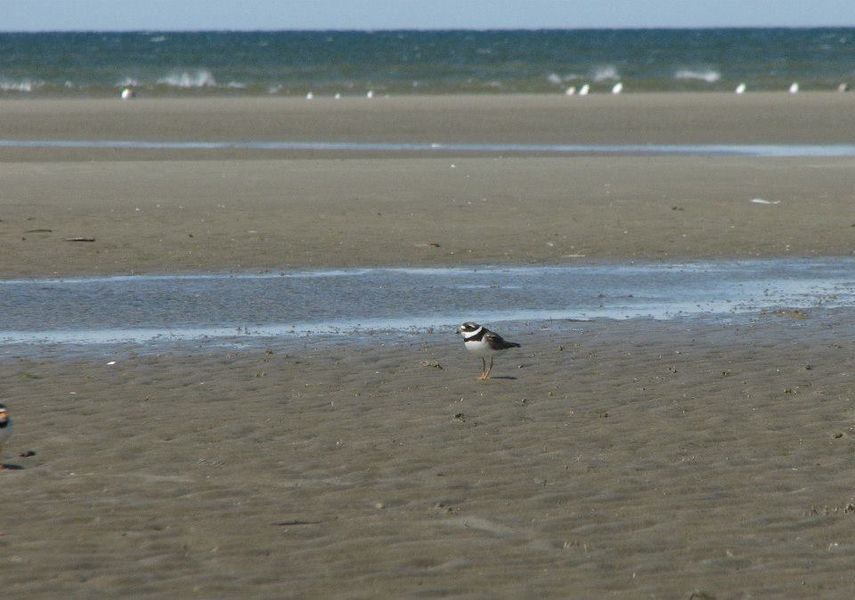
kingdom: Animalia
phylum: Chordata
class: Aves
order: Charadriiformes
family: Charadriidae
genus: Charadrius
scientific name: Charadrius hiaticula
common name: Common ringed plover
